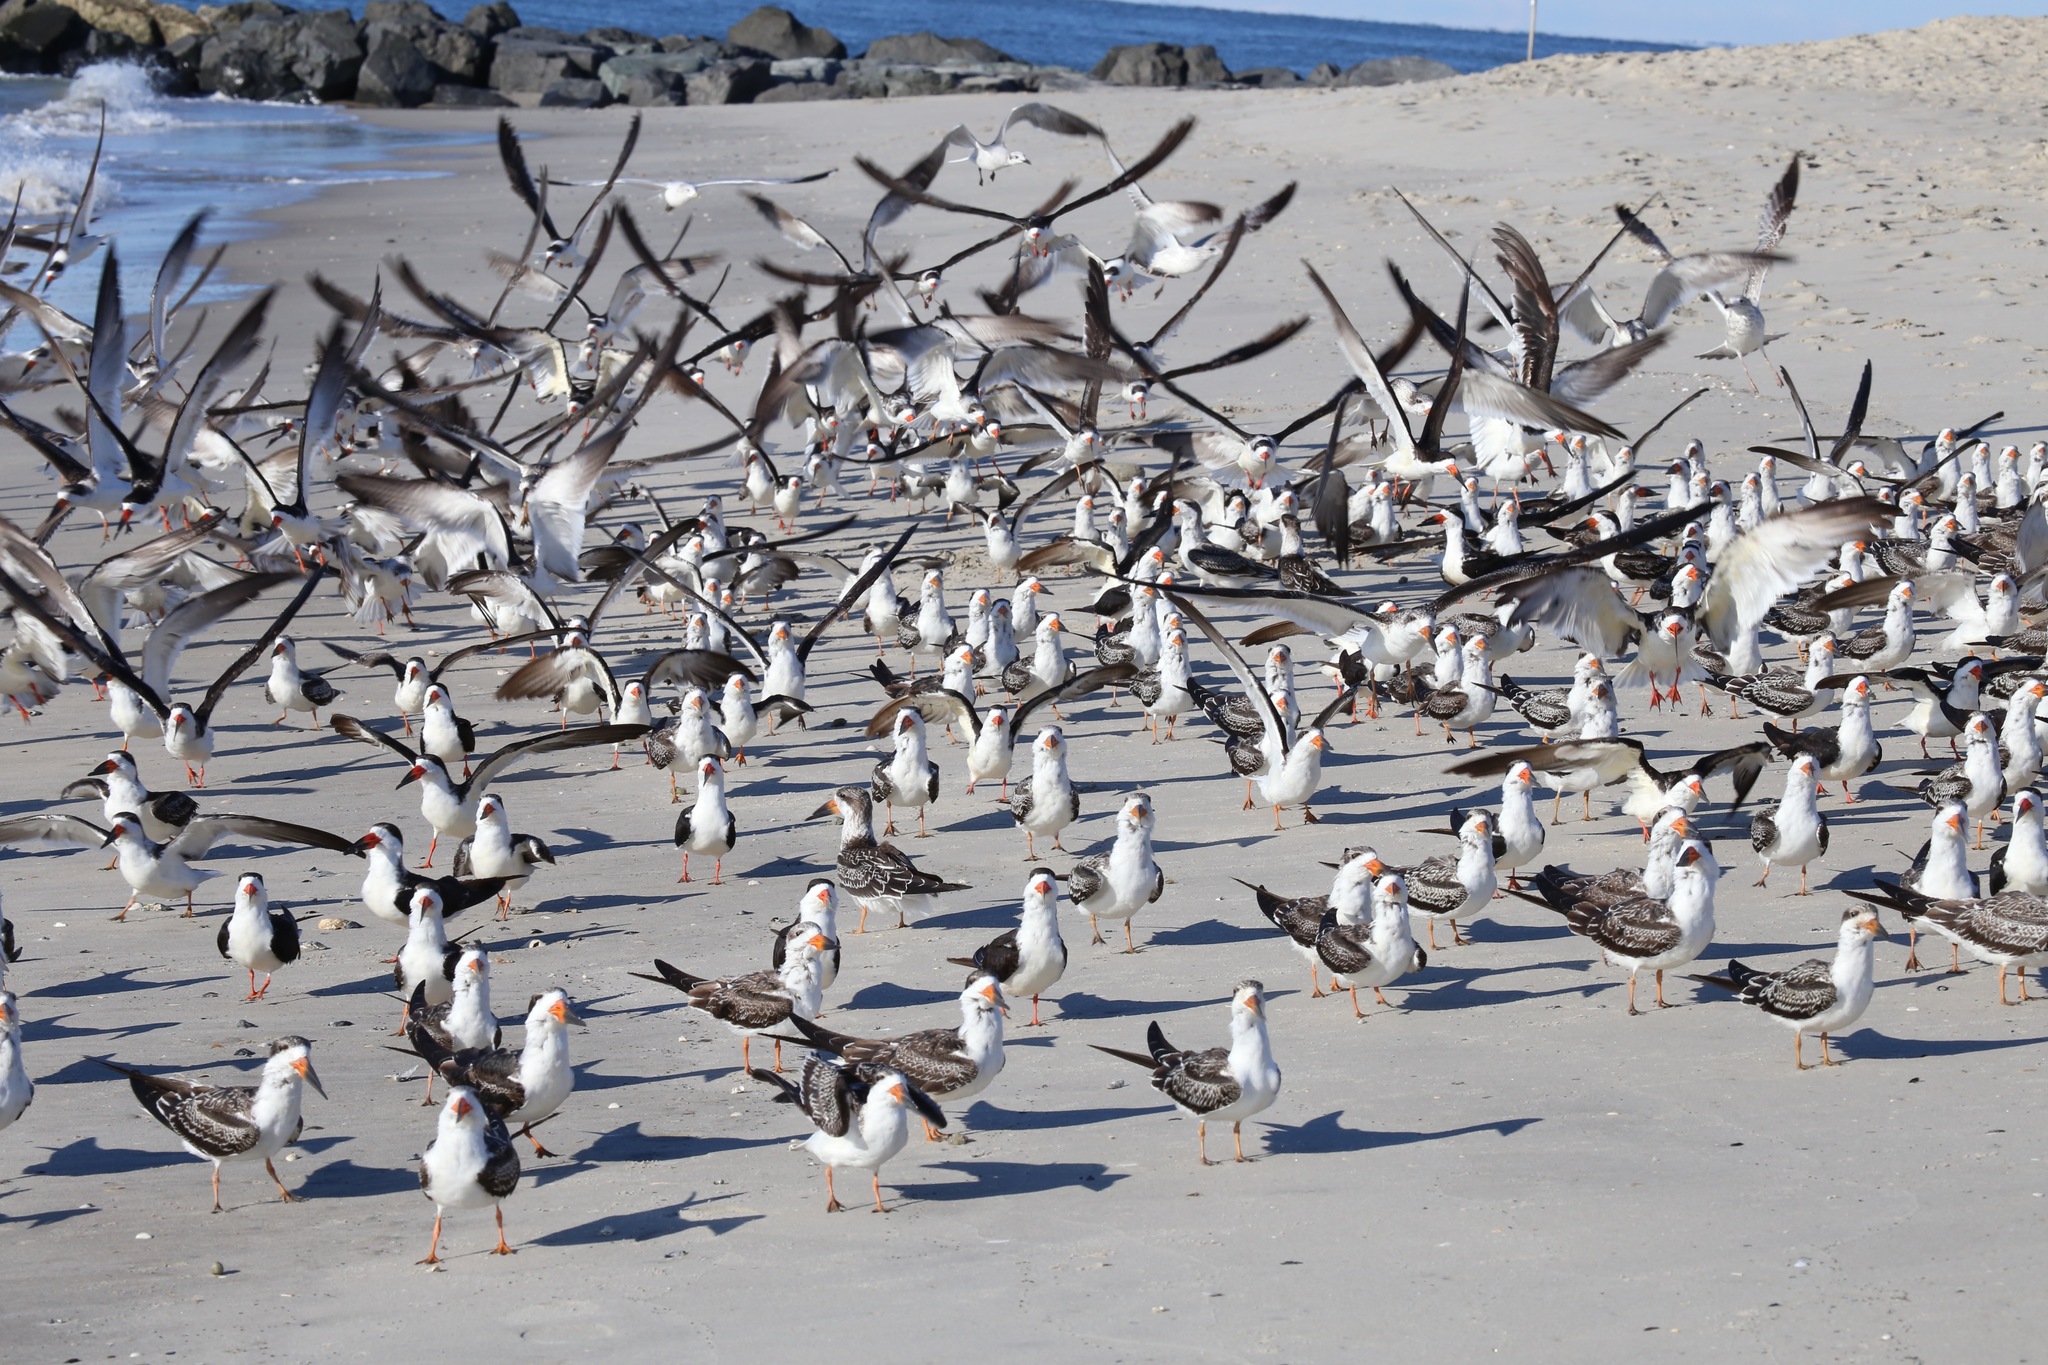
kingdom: Animalia
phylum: Chordata
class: Aves
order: Charadriiformes
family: Laridae
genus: Rynchops
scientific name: Rynchops niger
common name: Black skimmer
